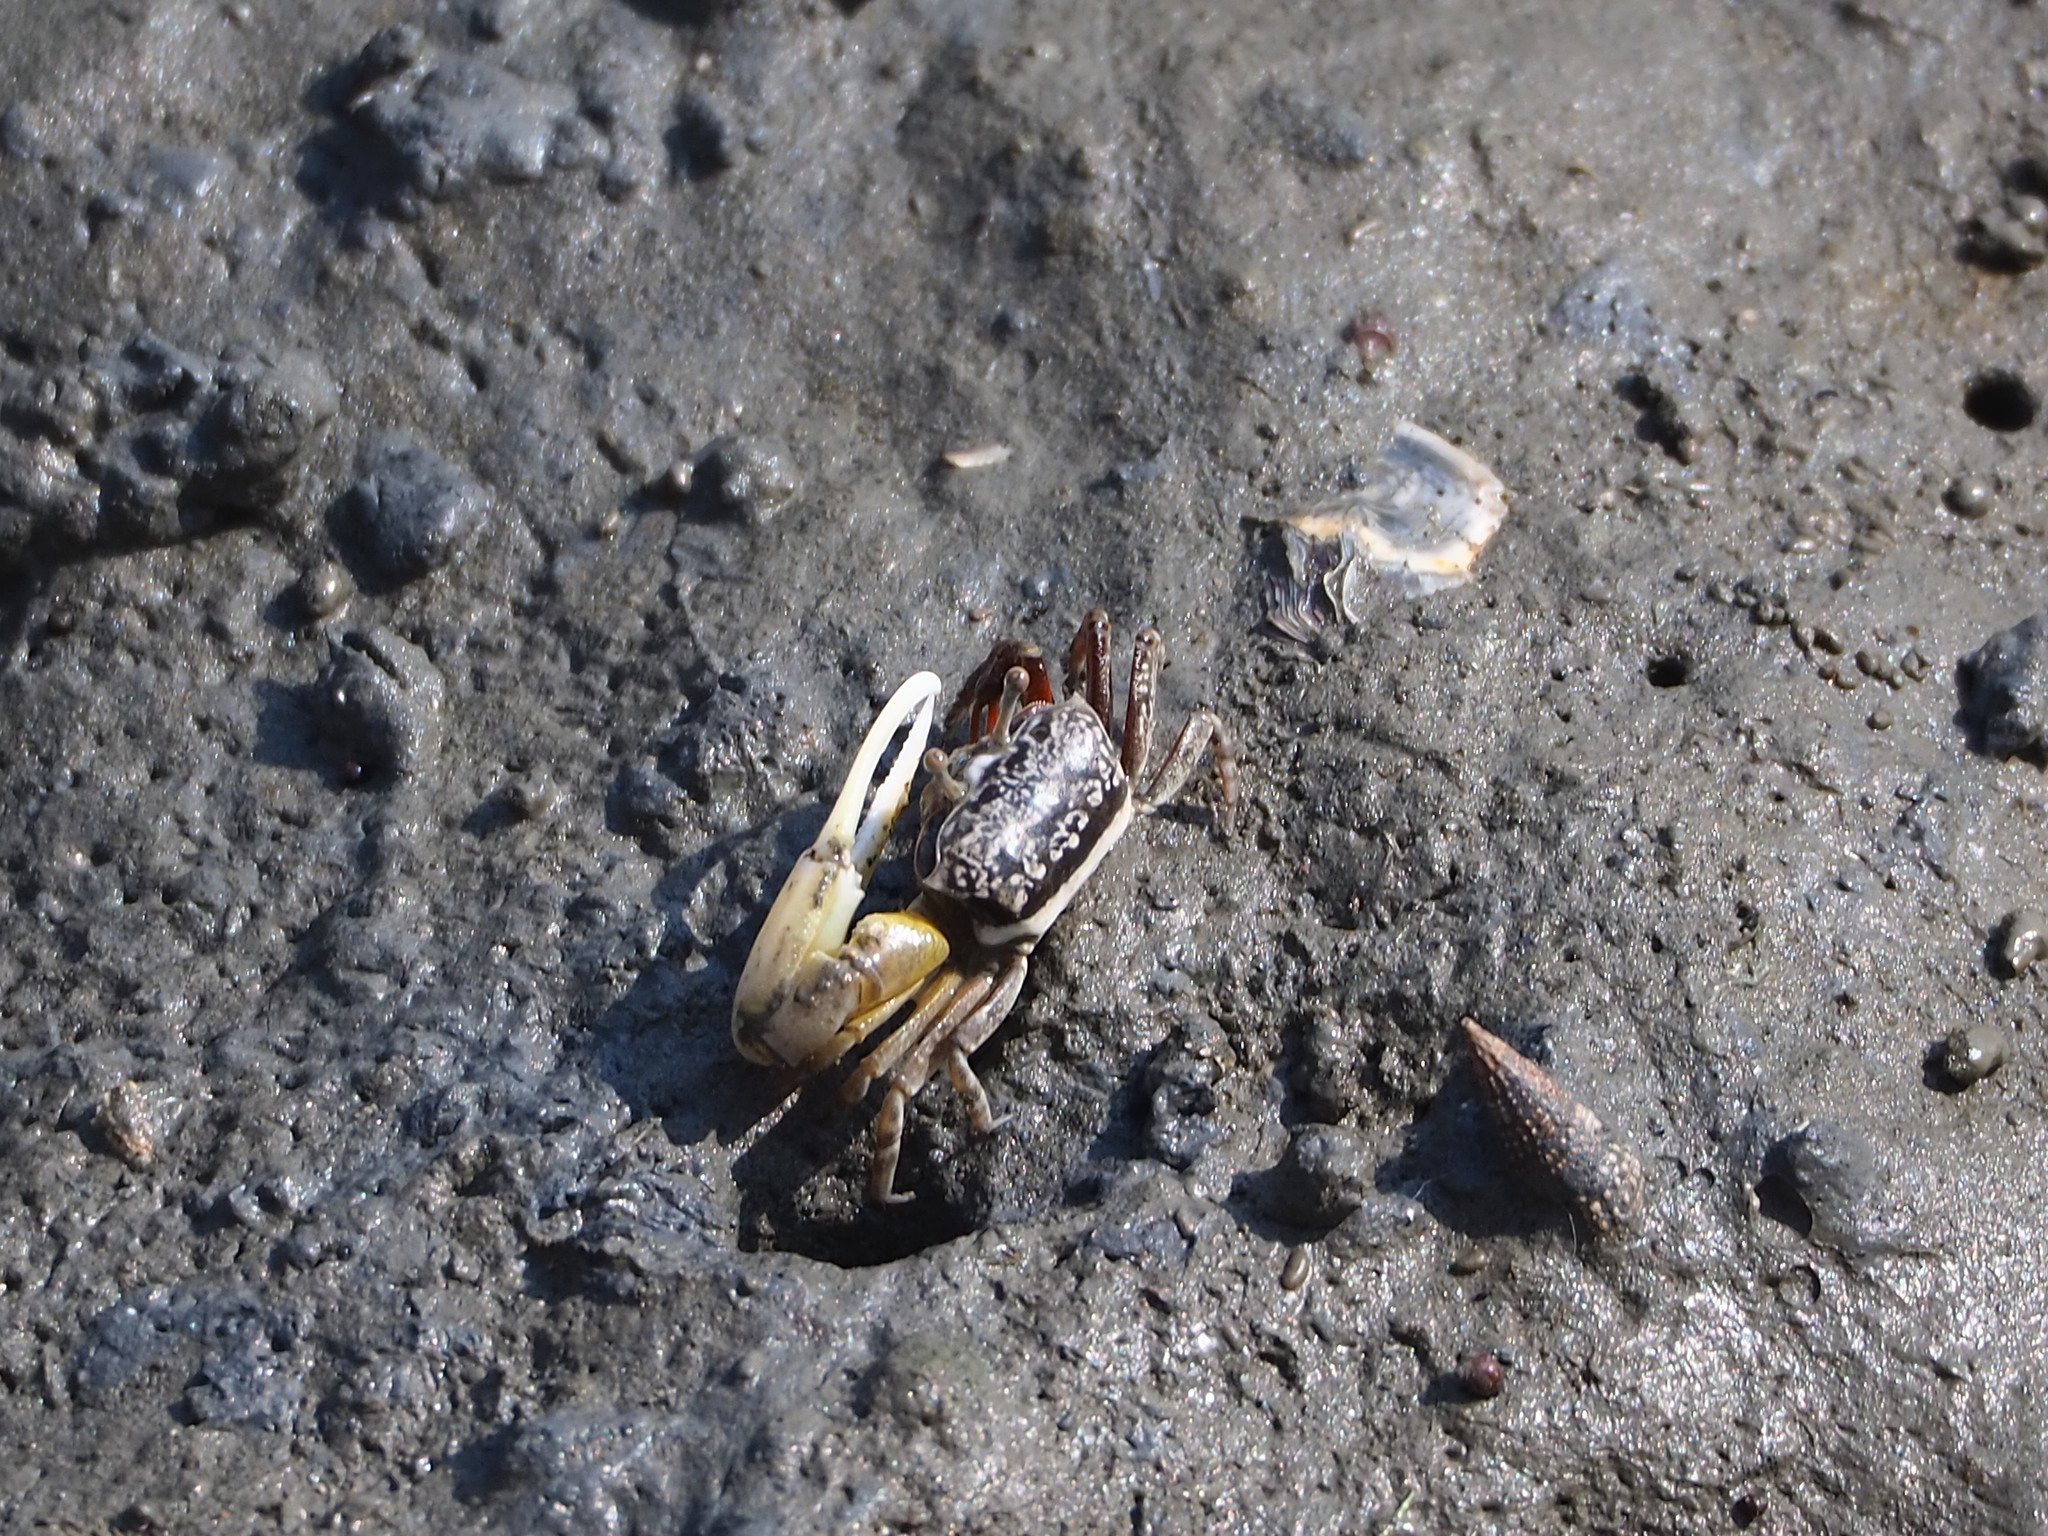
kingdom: Animalia
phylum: Arthropoda
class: Malacostraca
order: Decapoda
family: Ocypodidae
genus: Austruca
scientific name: Austruca lactea
